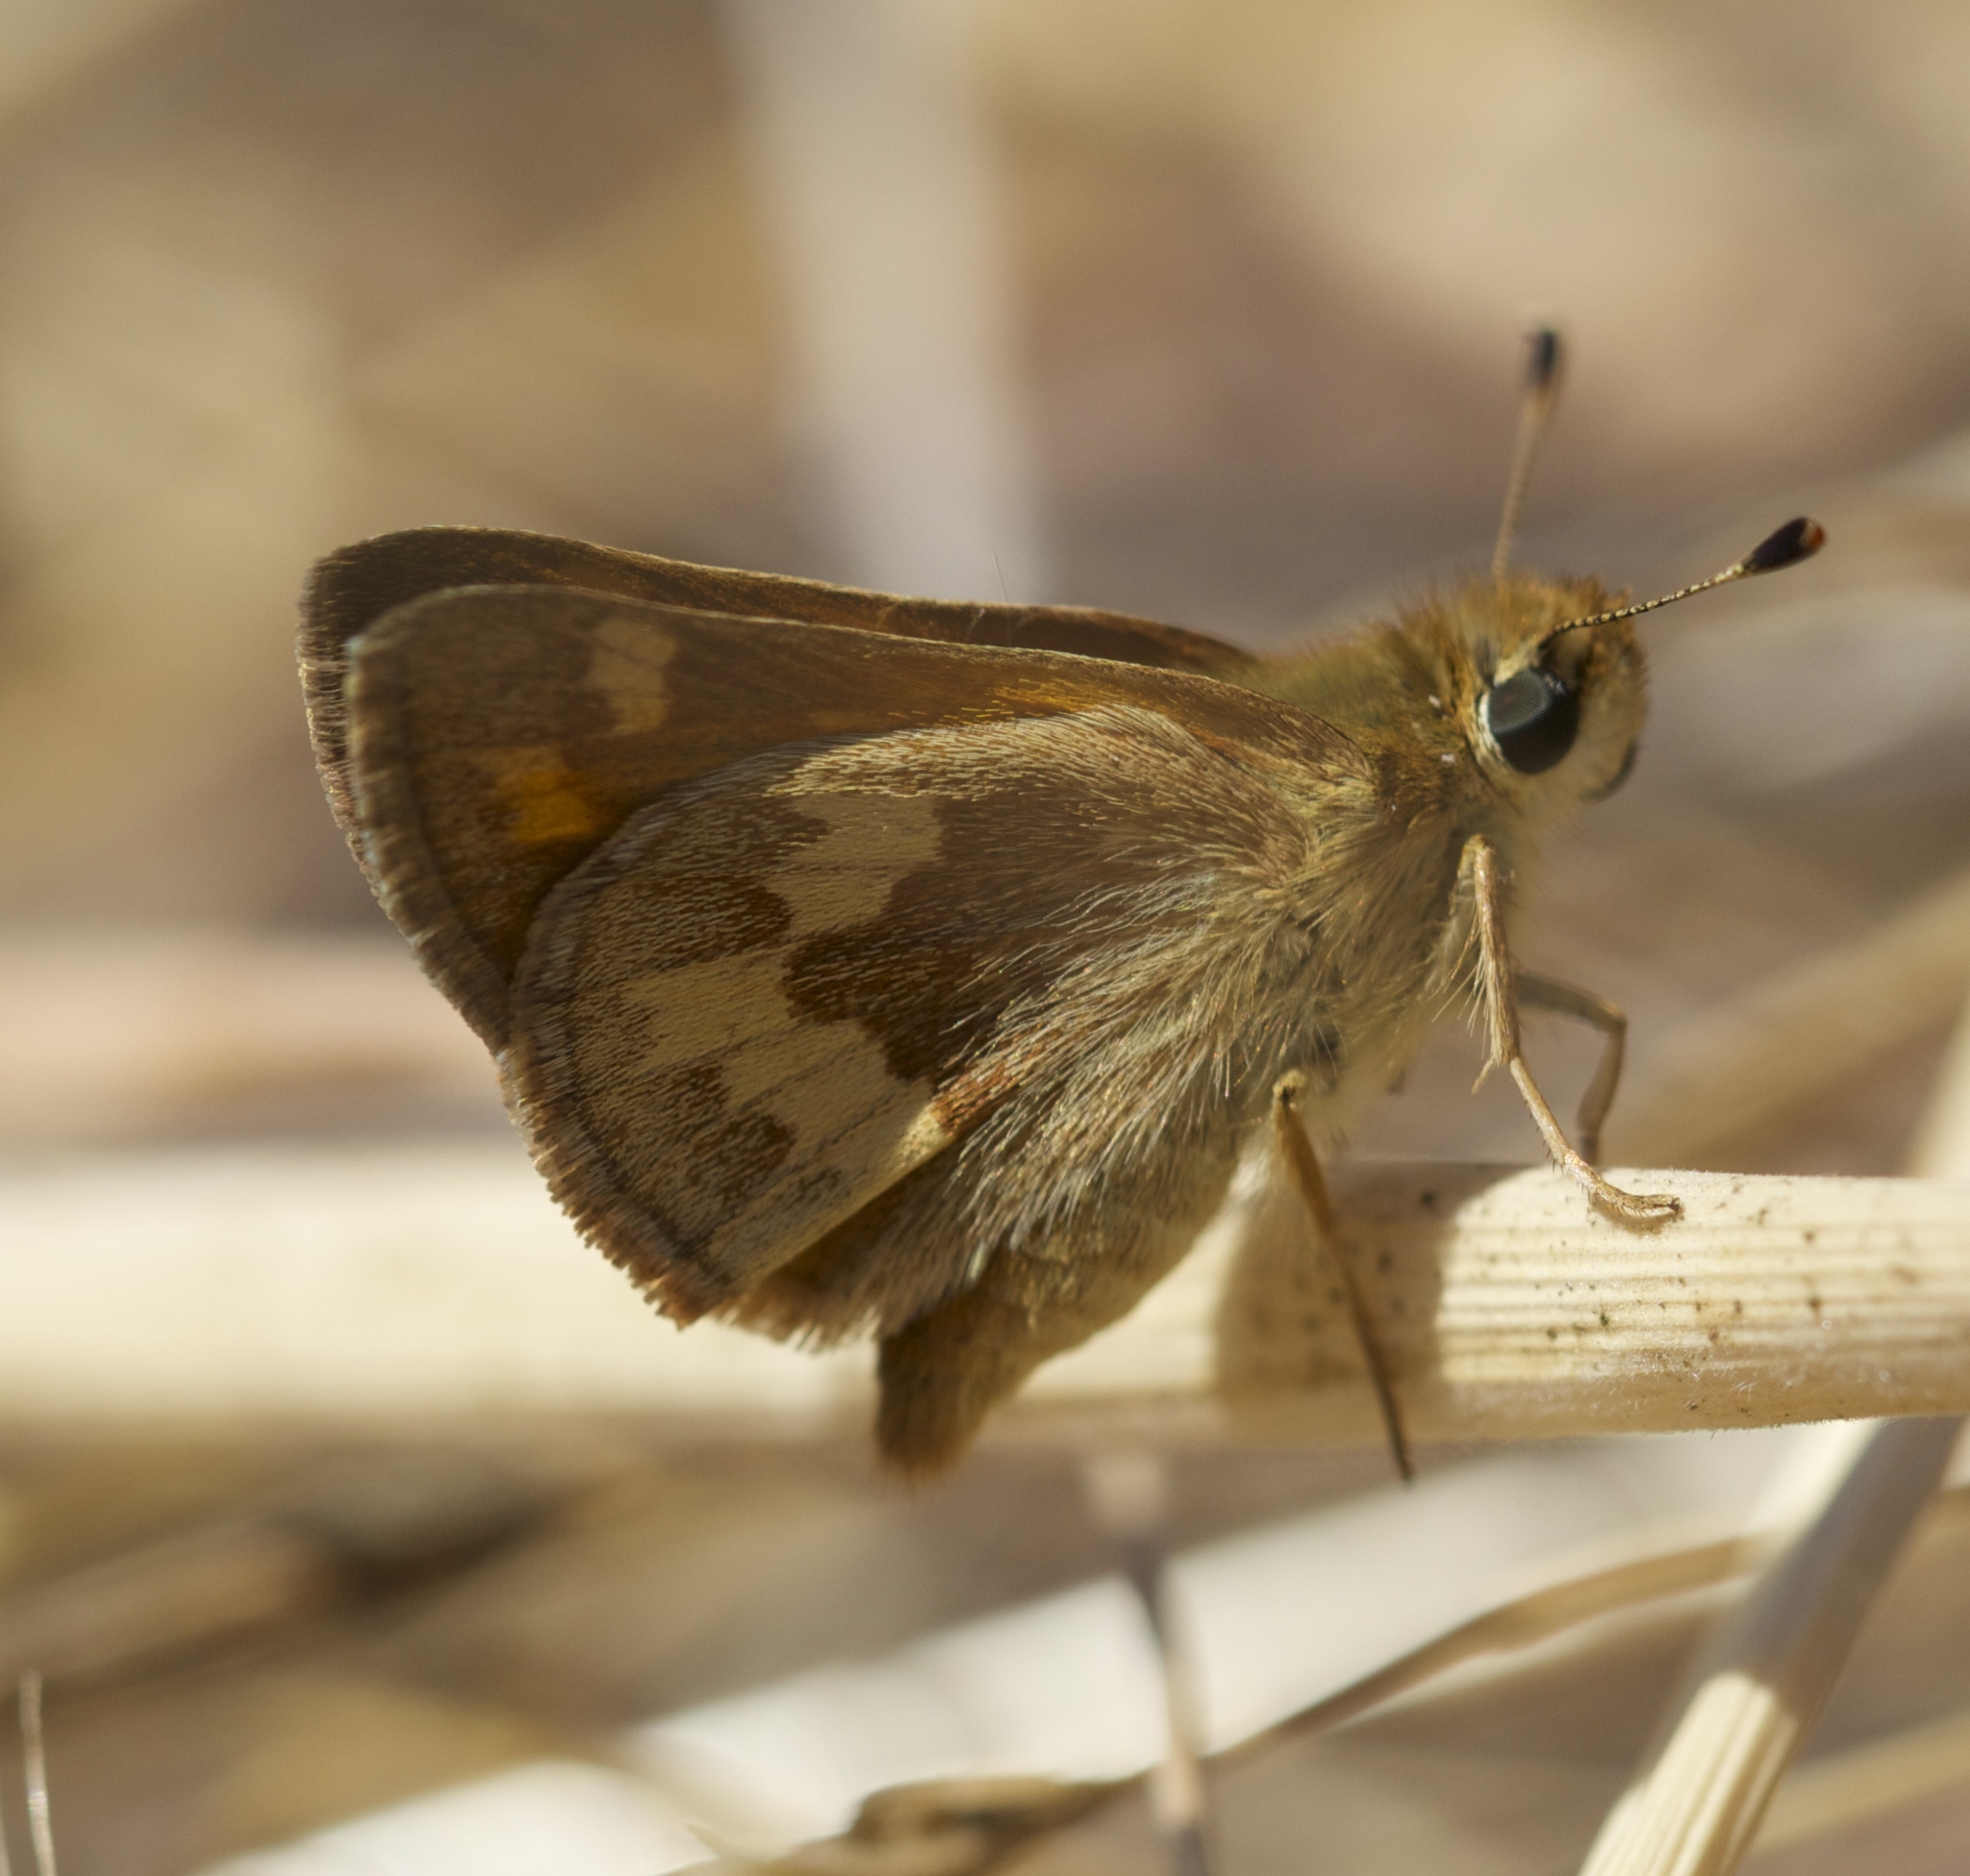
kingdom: Animalia
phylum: Arthropoda
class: Insecta
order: Lepidoptera
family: Hesperiidae
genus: Ochlodes
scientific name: Ochlodes sylvanoides
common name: Woodland skipper
